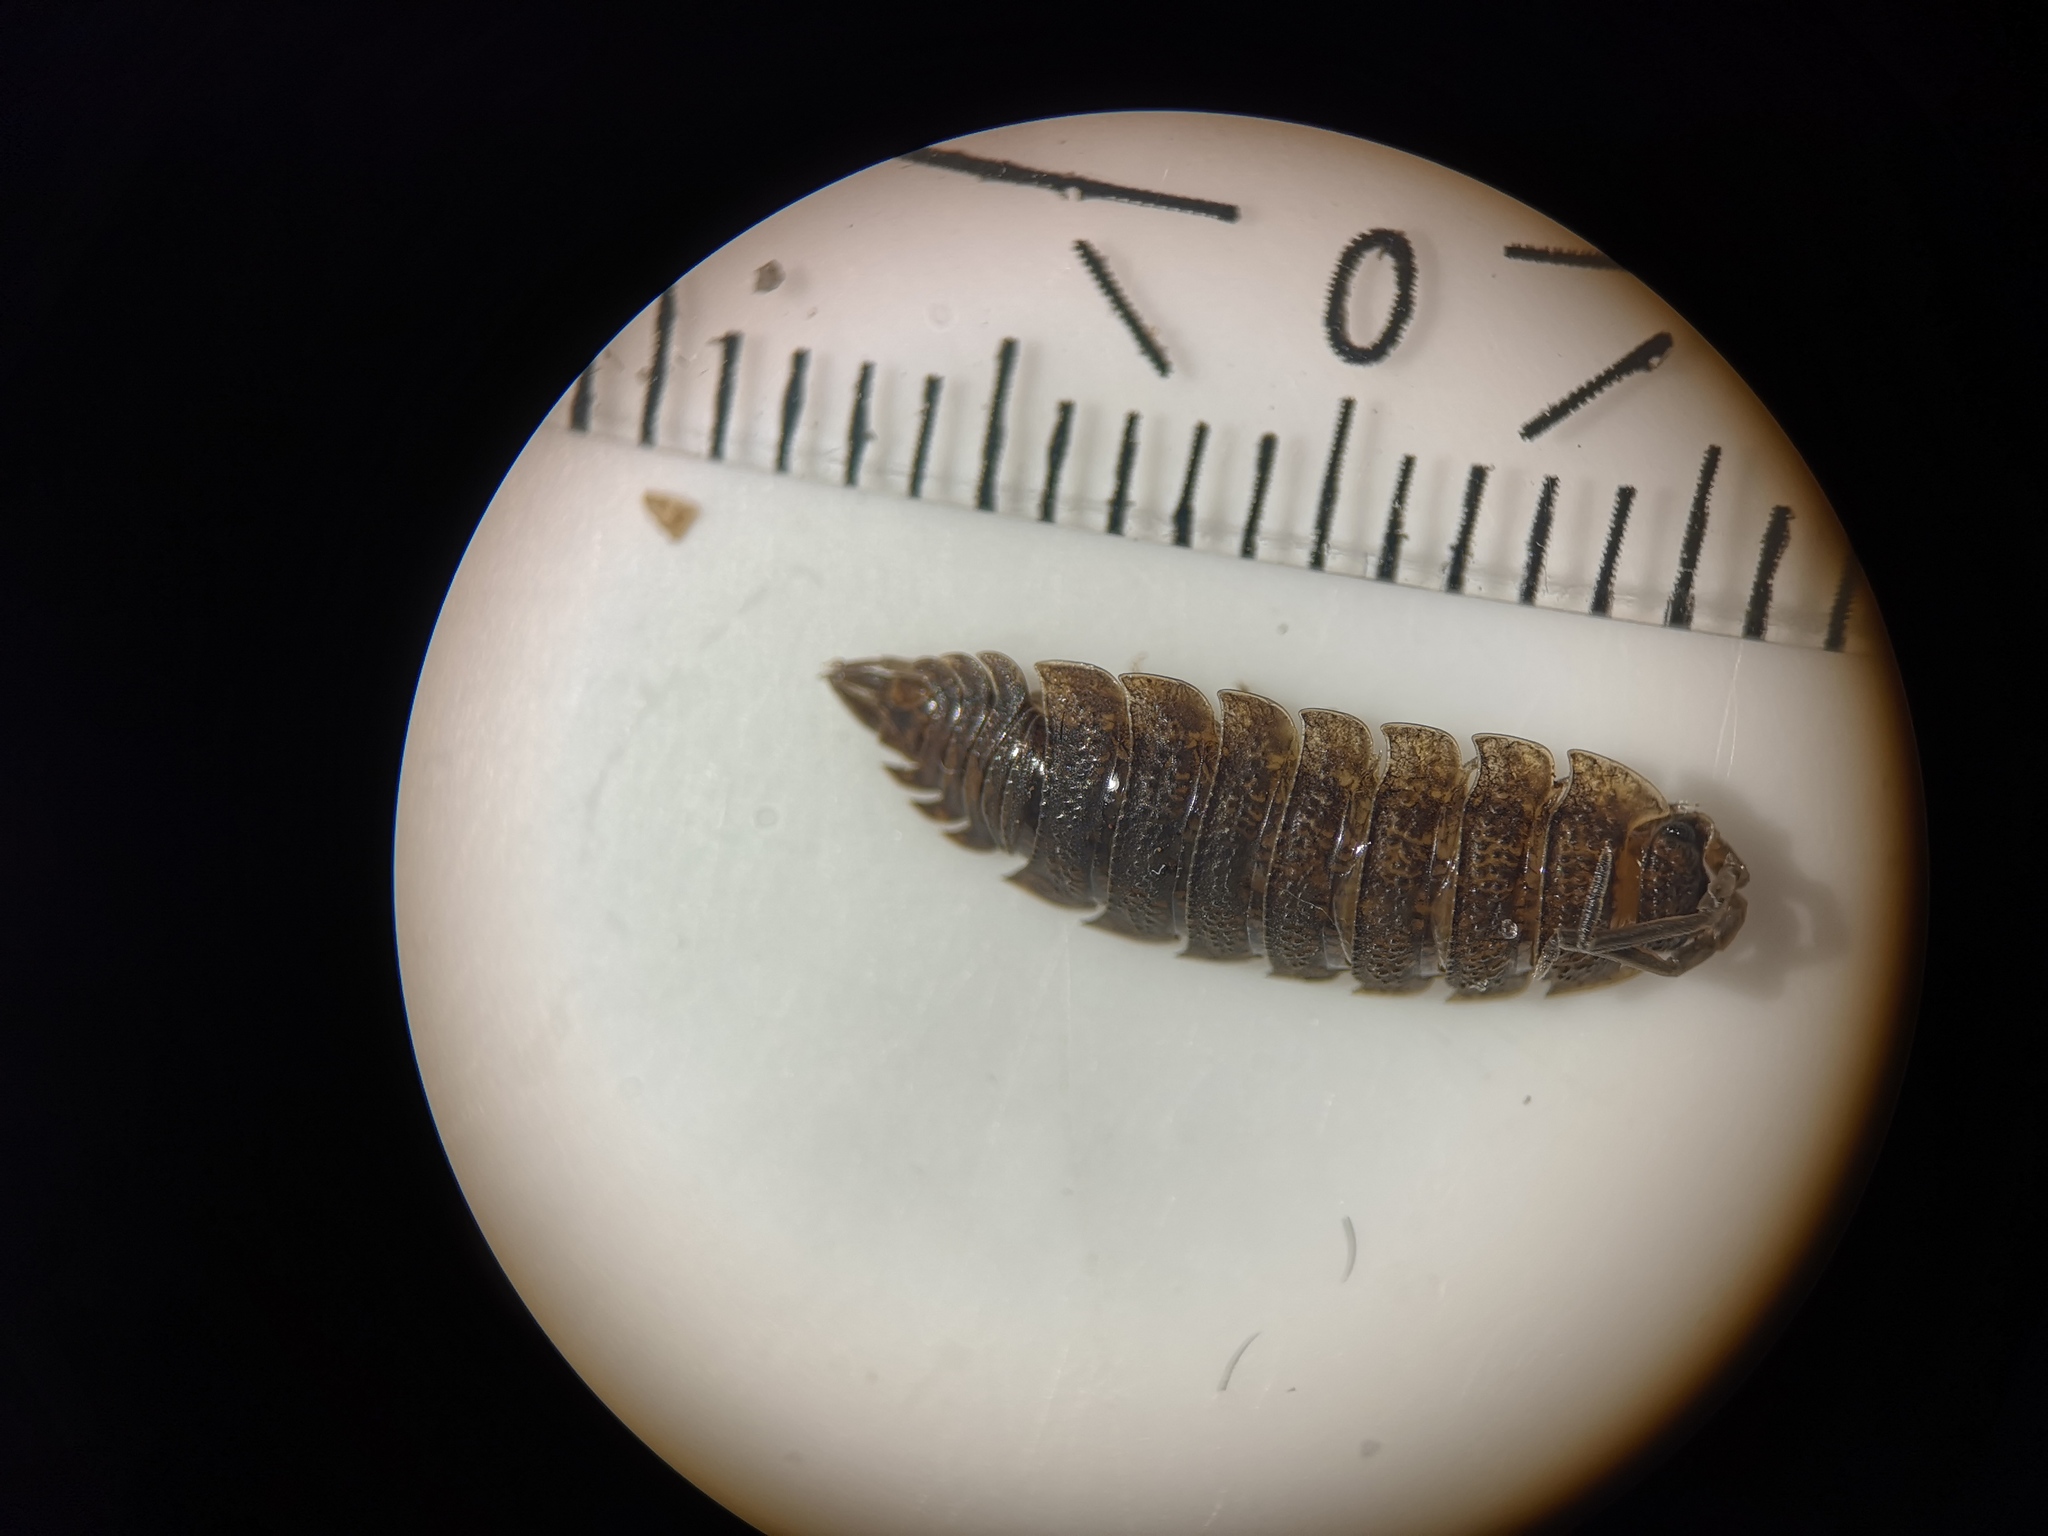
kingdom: Animalia
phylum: Arthropoda
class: Malacostraca
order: Isopoda
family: Porcellionidae
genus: Porcellio
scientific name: Porcellio scaber
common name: Common rough woodlouse
